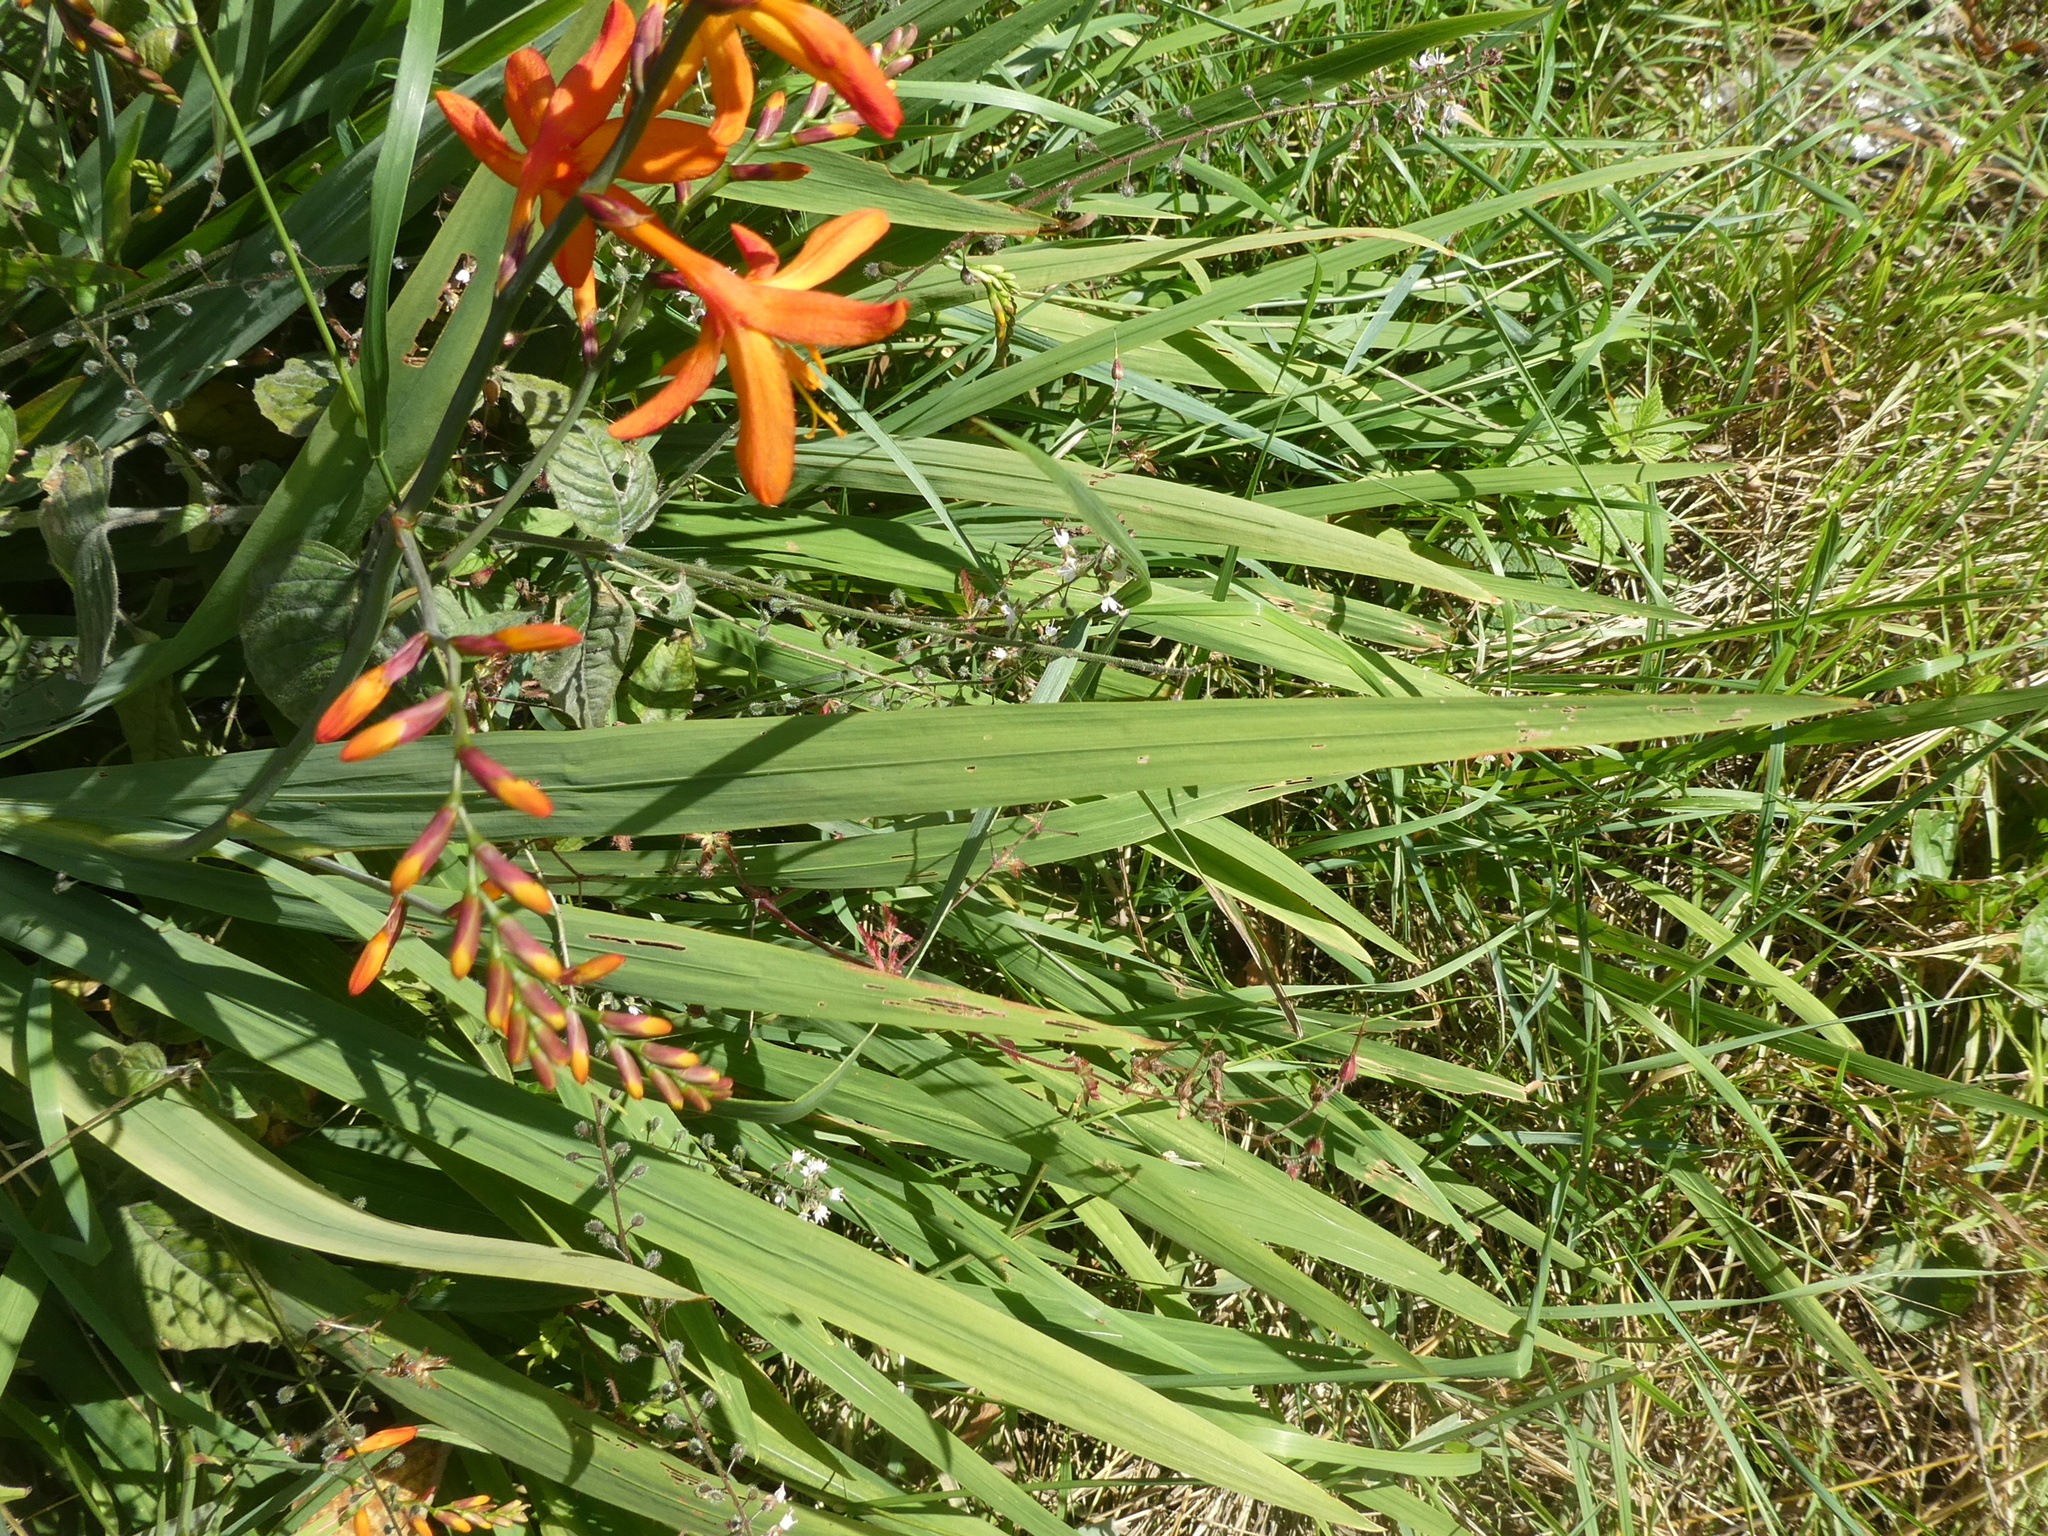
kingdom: Plantae
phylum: Tracheophyta
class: Liliopsida
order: Asparagales
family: Iridaceae
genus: Crocosmia
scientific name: Crocosmia crocosmiiflora
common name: Montbretia
